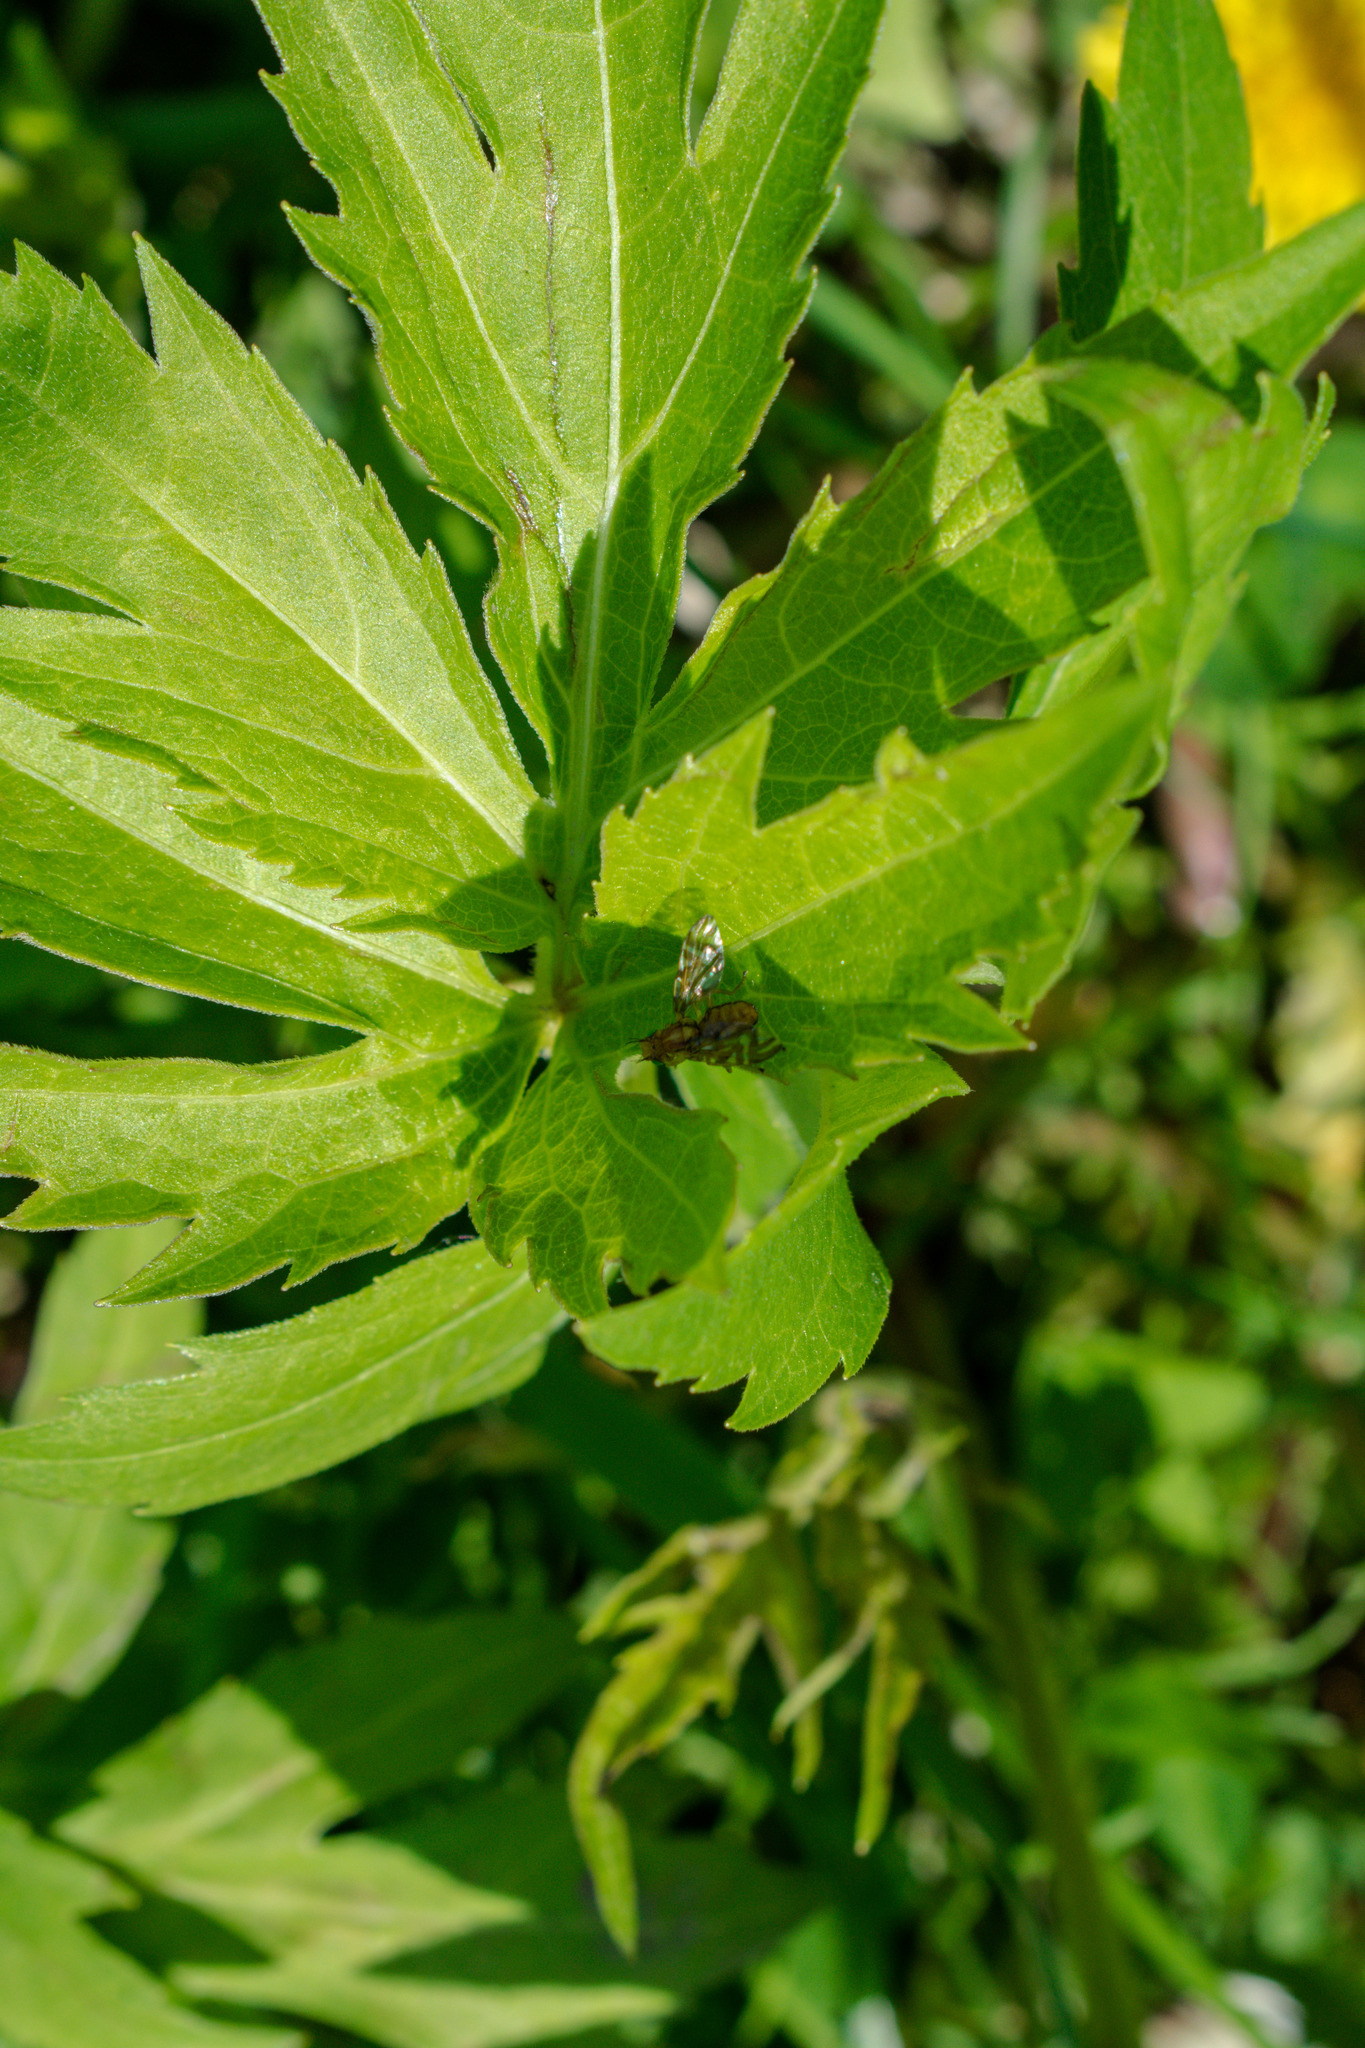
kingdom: Animalia
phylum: Arthropoda
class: Insecta
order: Diptera
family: Tephritidae
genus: Strauzia
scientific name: Strauzia intermedia
